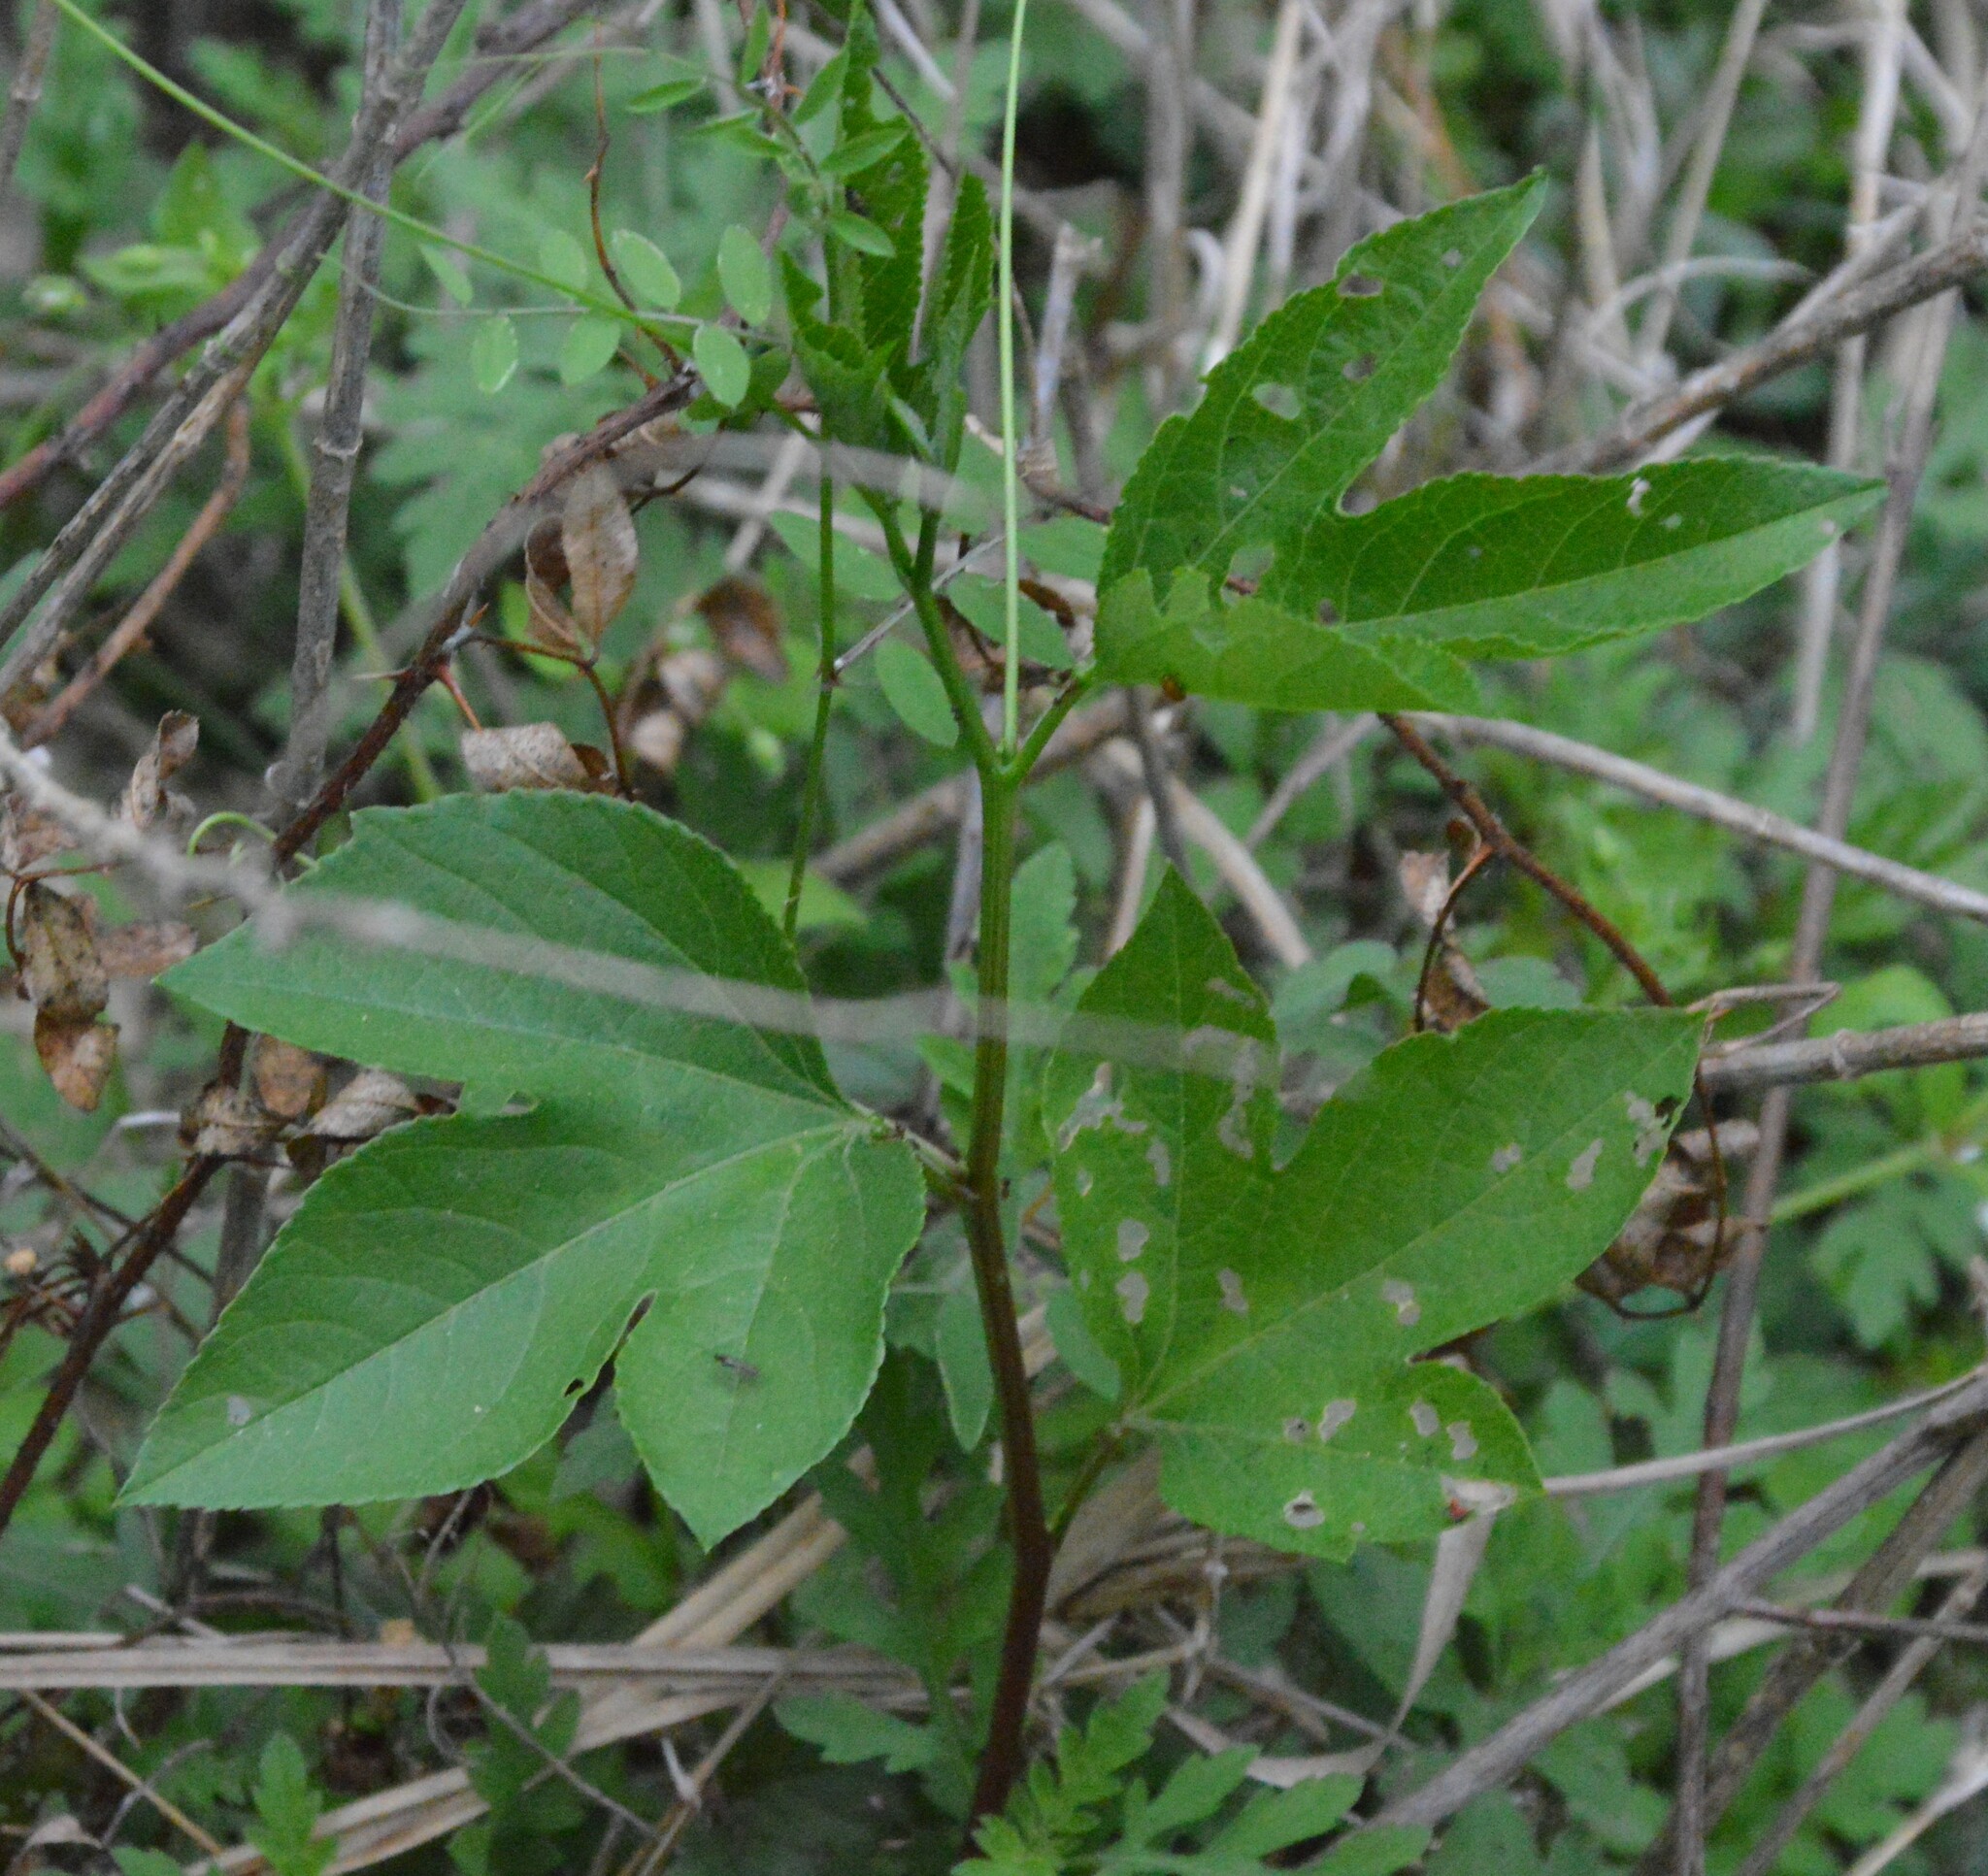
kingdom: Plantae
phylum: Tracheophyta
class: Magnoliopsida
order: Malpighiales
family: Passifloraceae
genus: Passiflora
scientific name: Passiflora incarnata
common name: Apricot-vine
